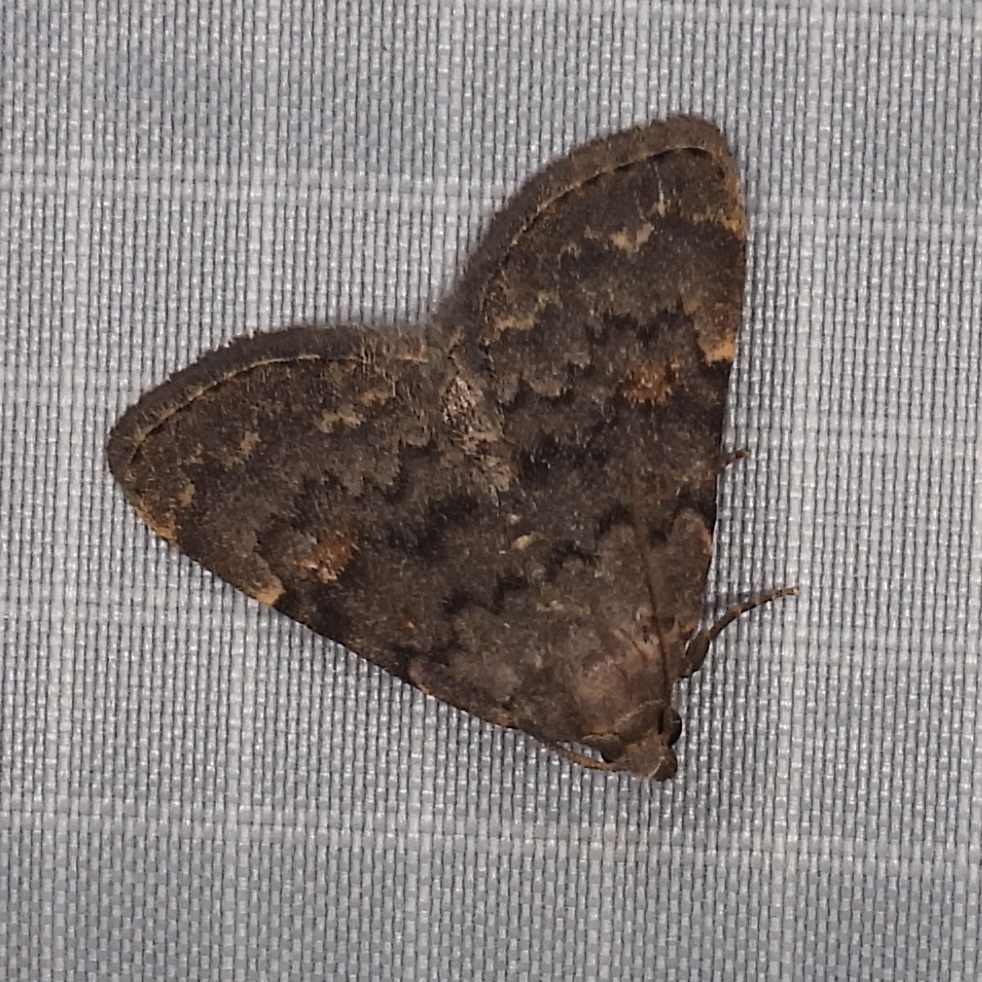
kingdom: Animalia
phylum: Arthropoda
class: Insecta
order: Lepidoptera
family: Erebidae
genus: Idia
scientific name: Idia aemula
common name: Common idia moth
